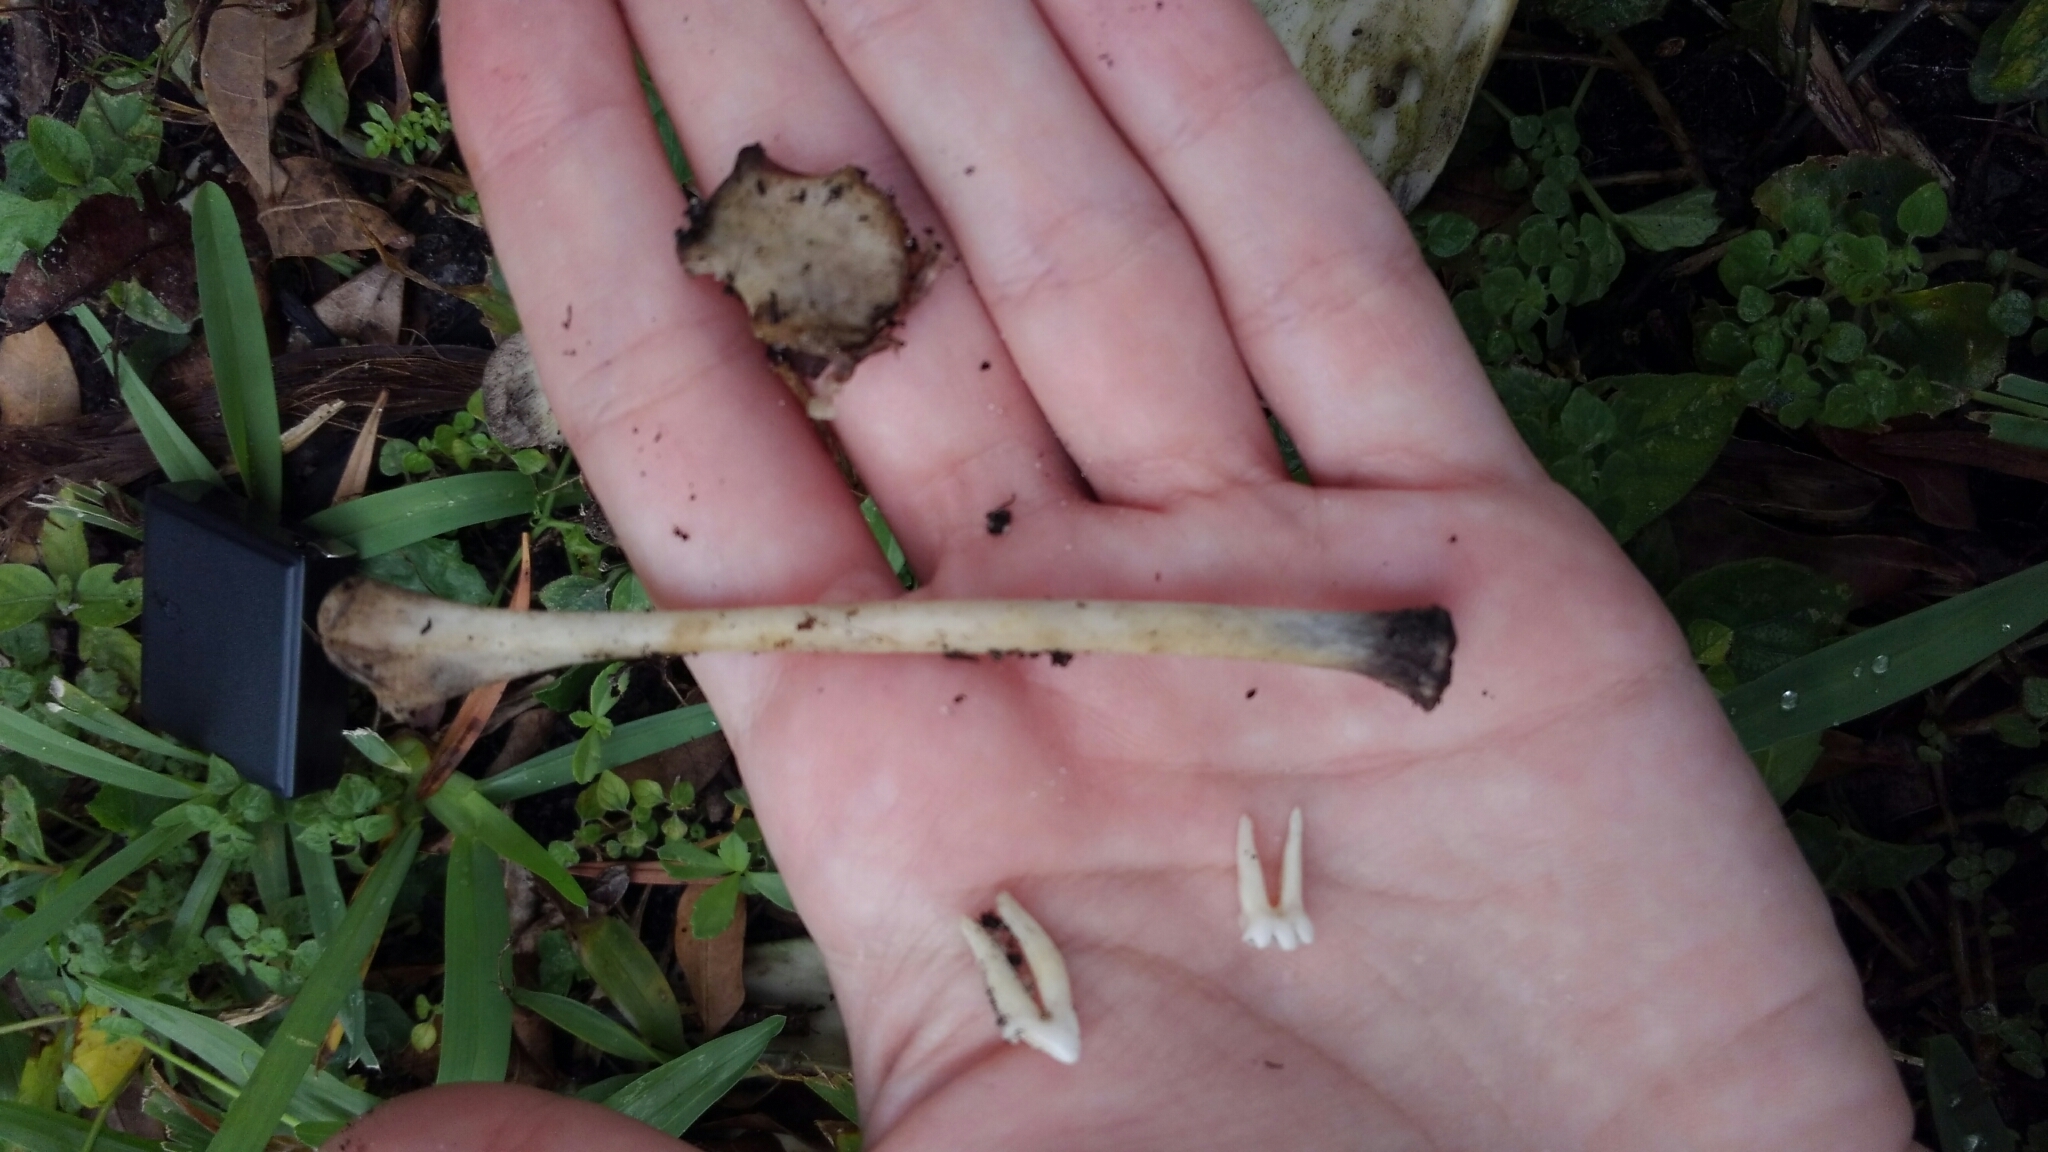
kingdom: Animalia
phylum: Chordata
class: Mammalia
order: Didelphimorphia
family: Didelphidae
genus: Didelphis
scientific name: Didelphis virginiana
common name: Virginia opossum
